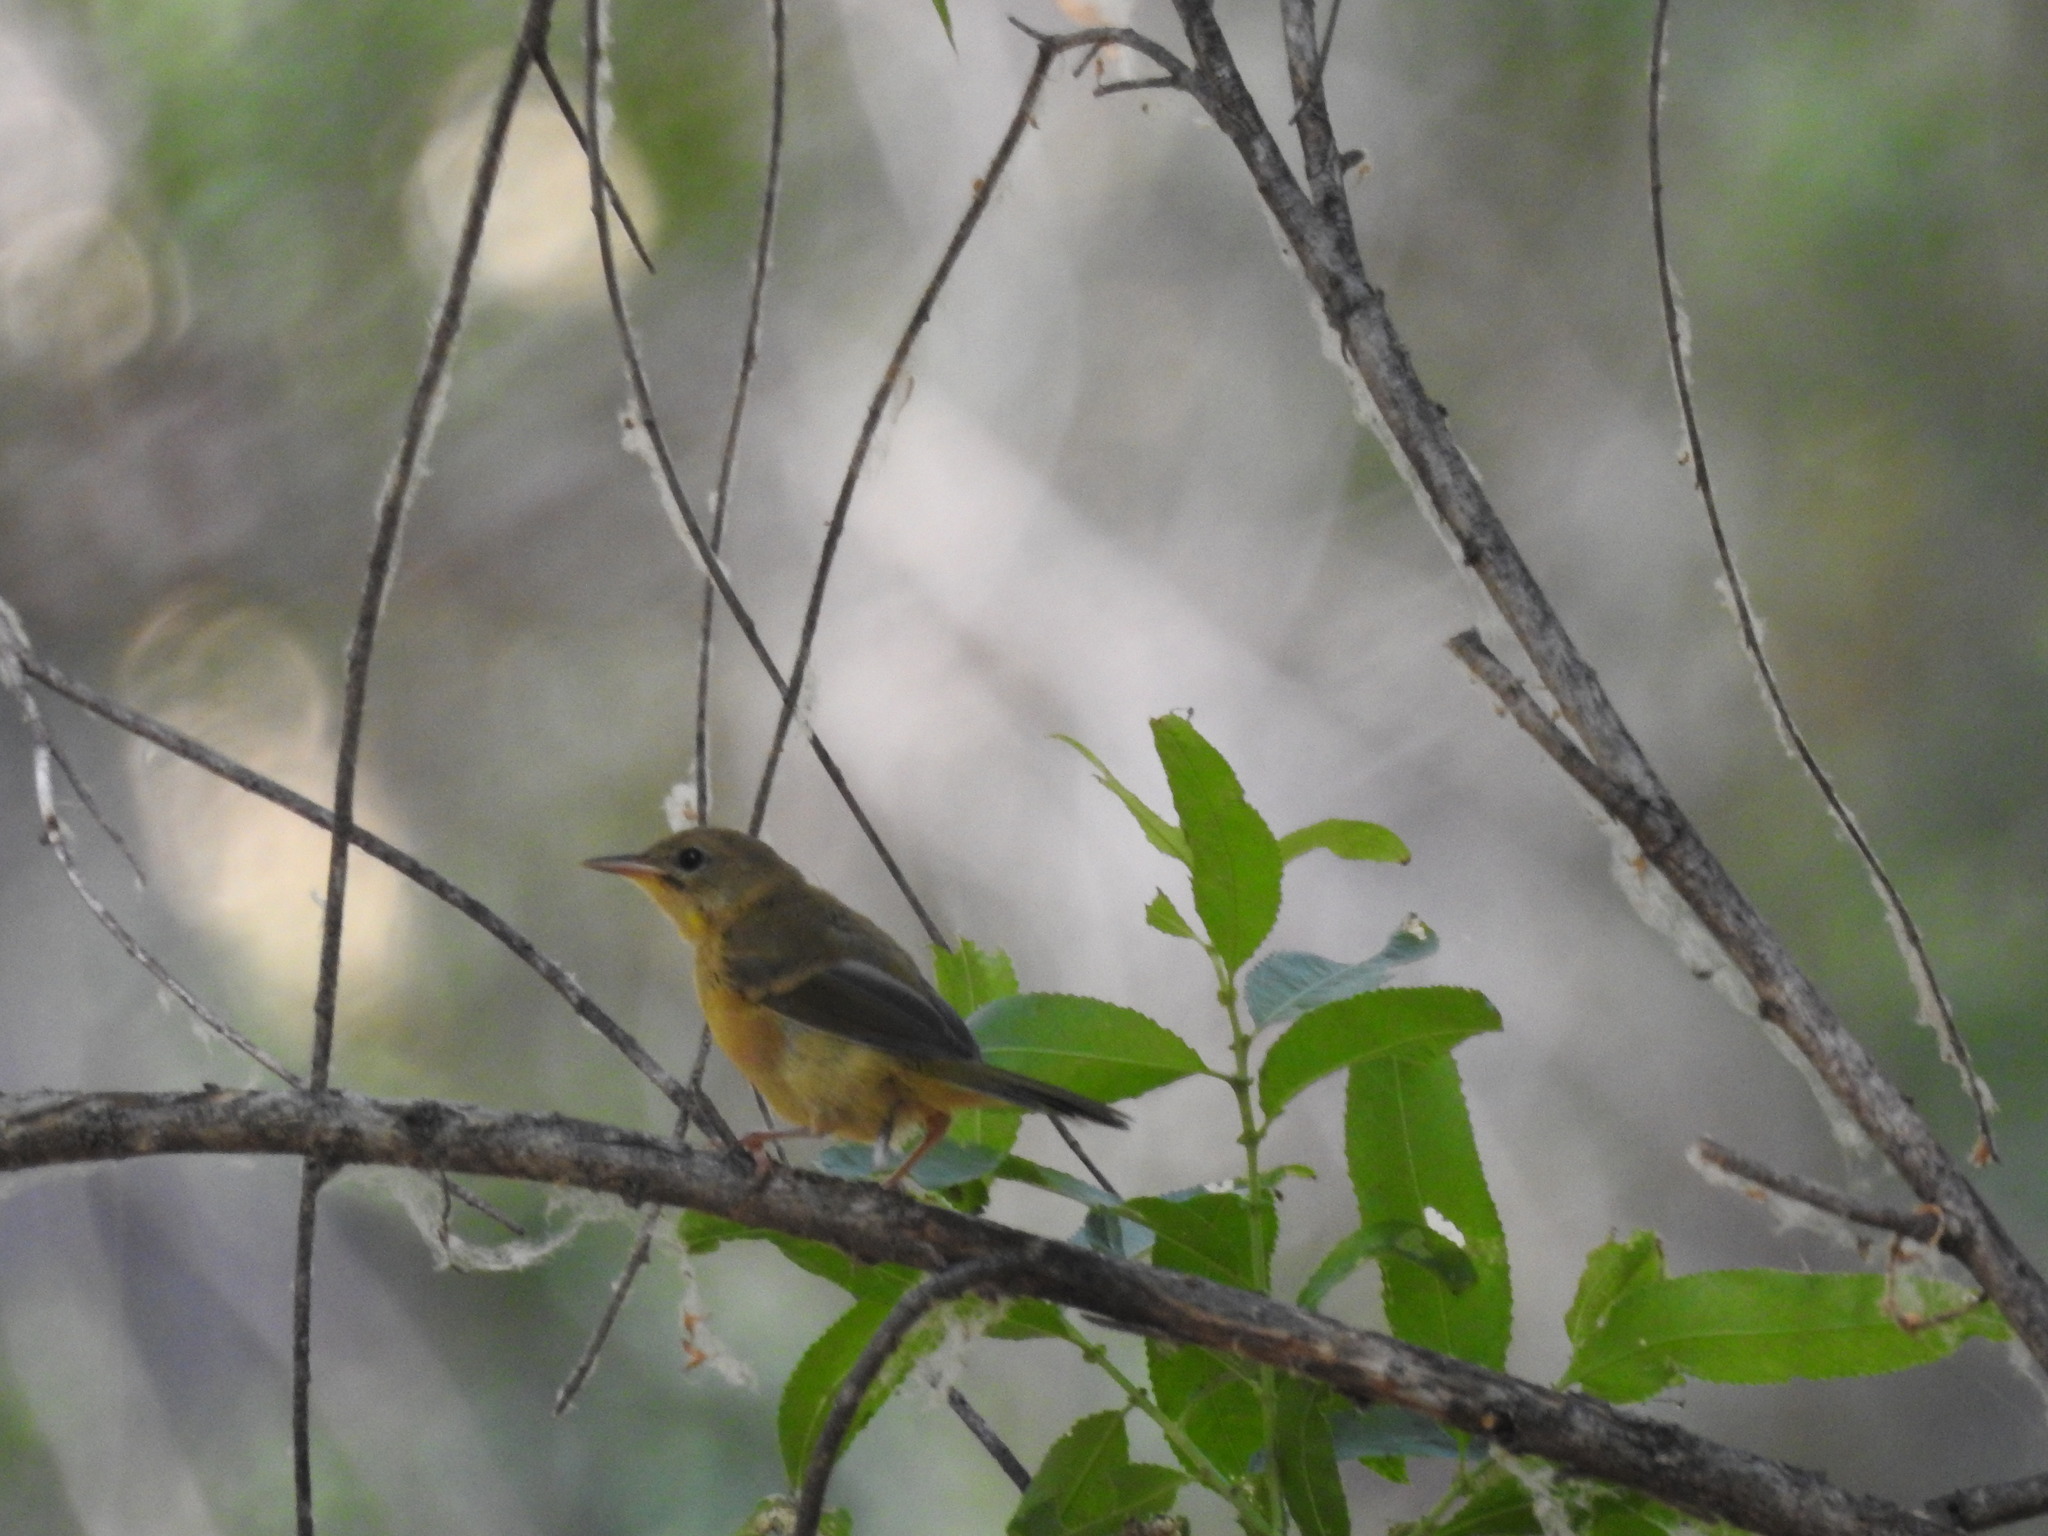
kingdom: Animalia
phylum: Chordata
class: Aves
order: Passeriformes
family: Parulidae
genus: Geothlypis
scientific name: Geothlypis trichas
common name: Common yellowthroat
